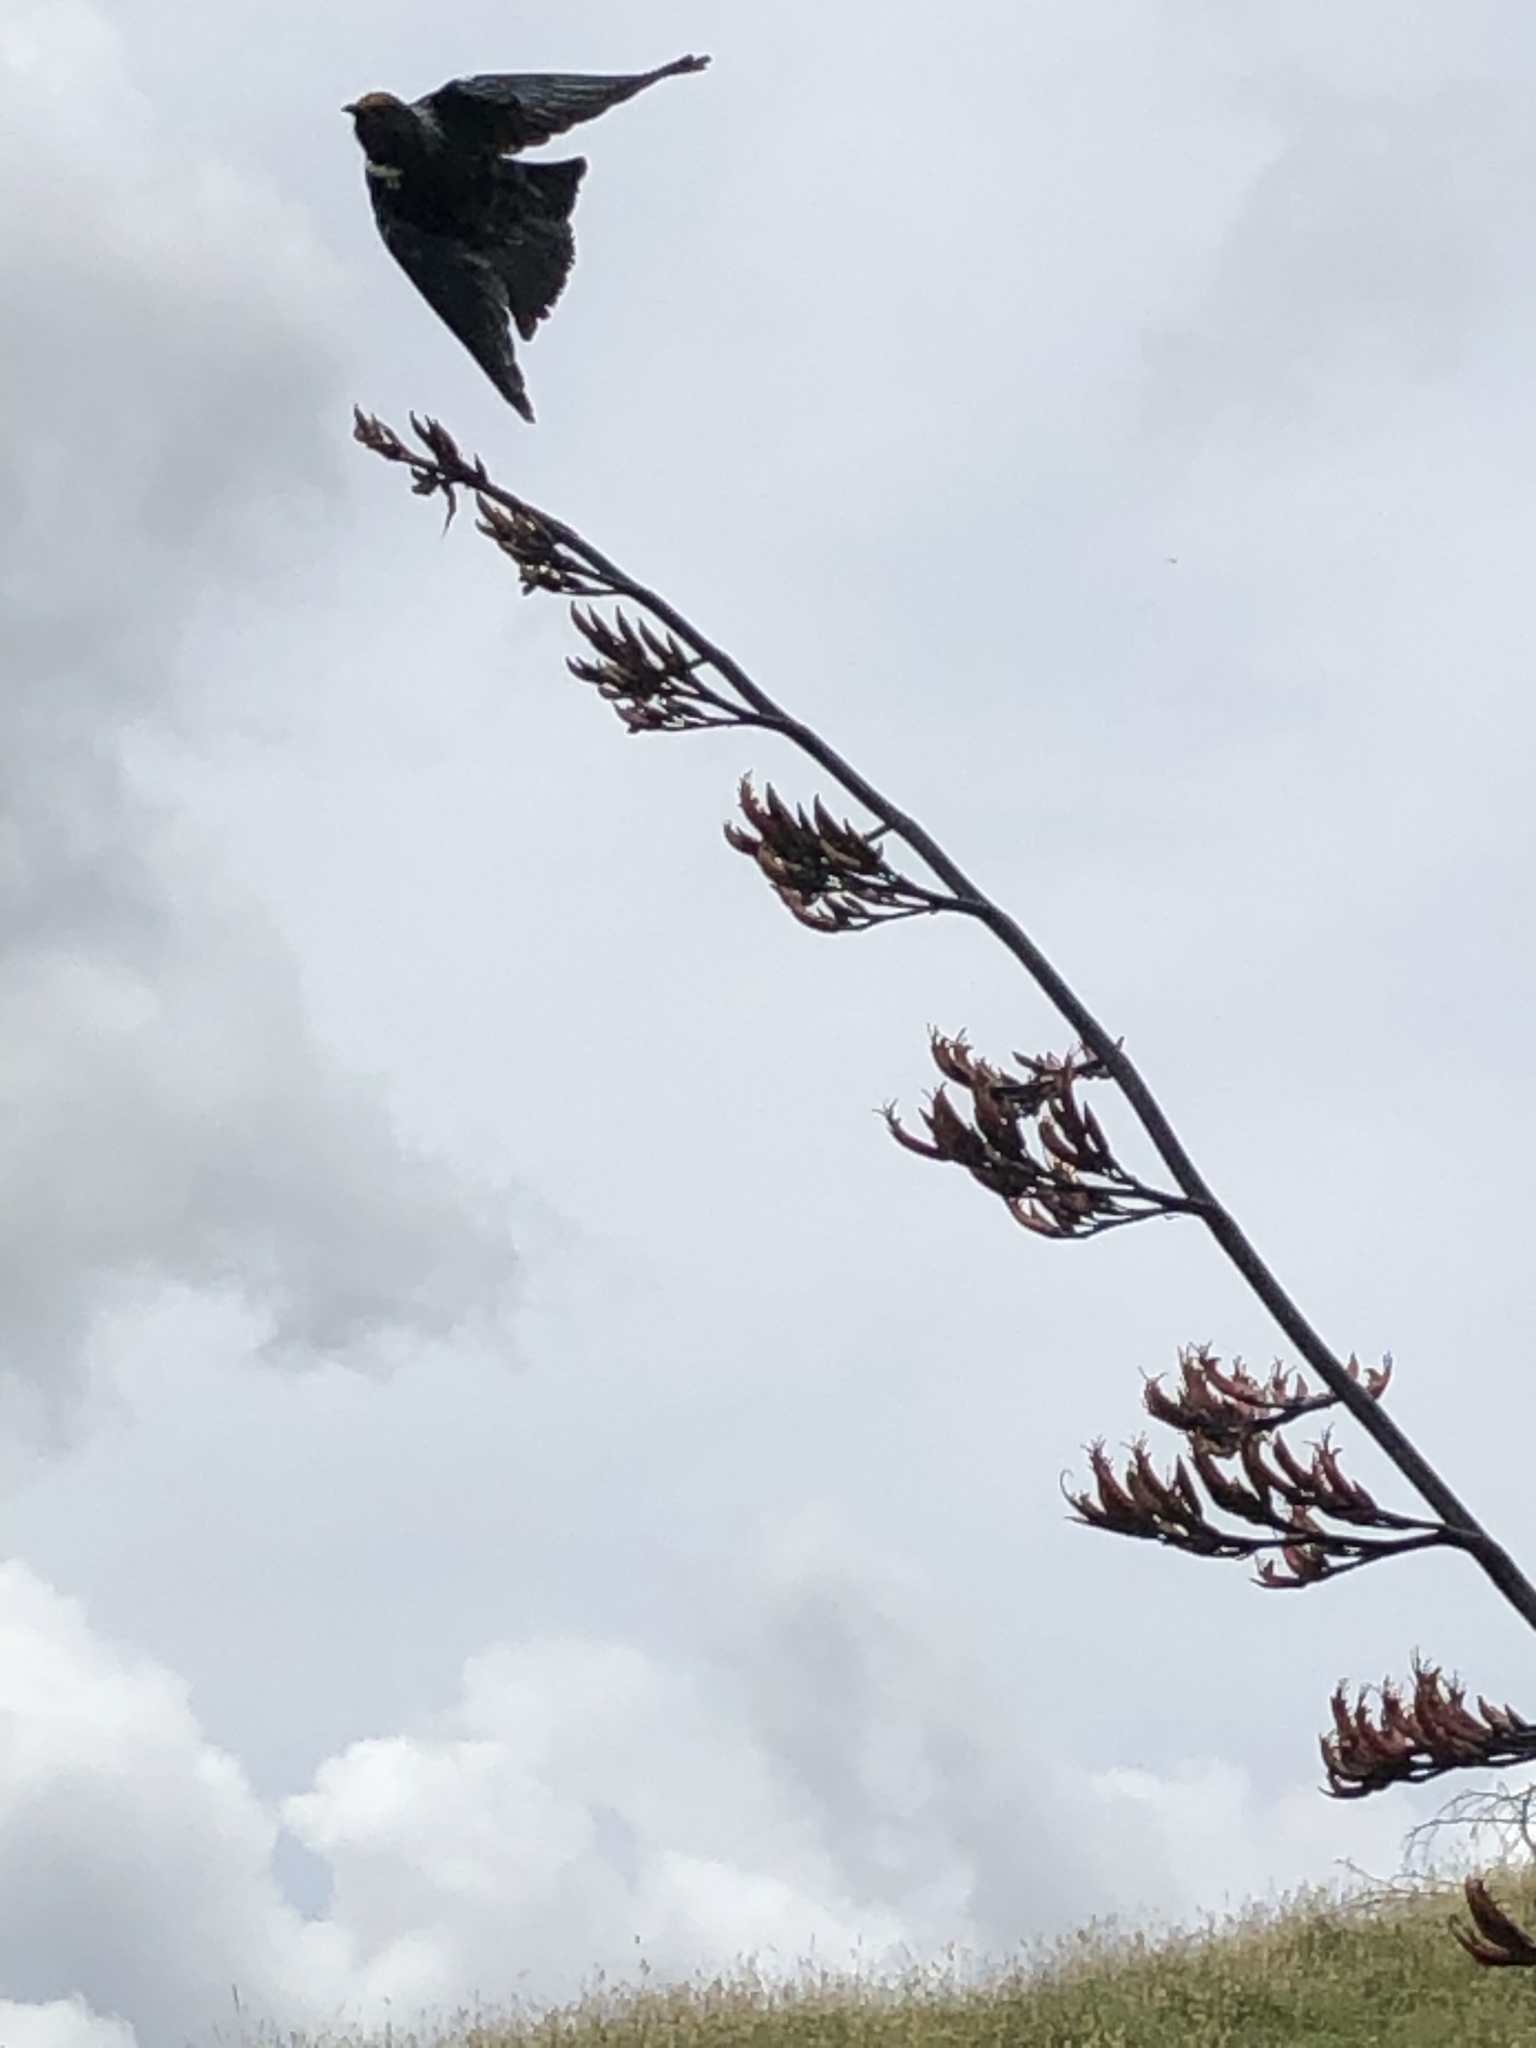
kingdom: Animalia
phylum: Chordata
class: Aves
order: Passeriformes
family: Meliphagidae
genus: Prosthemadera
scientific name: Prosthemadera novaeseelandiae
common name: Tui
